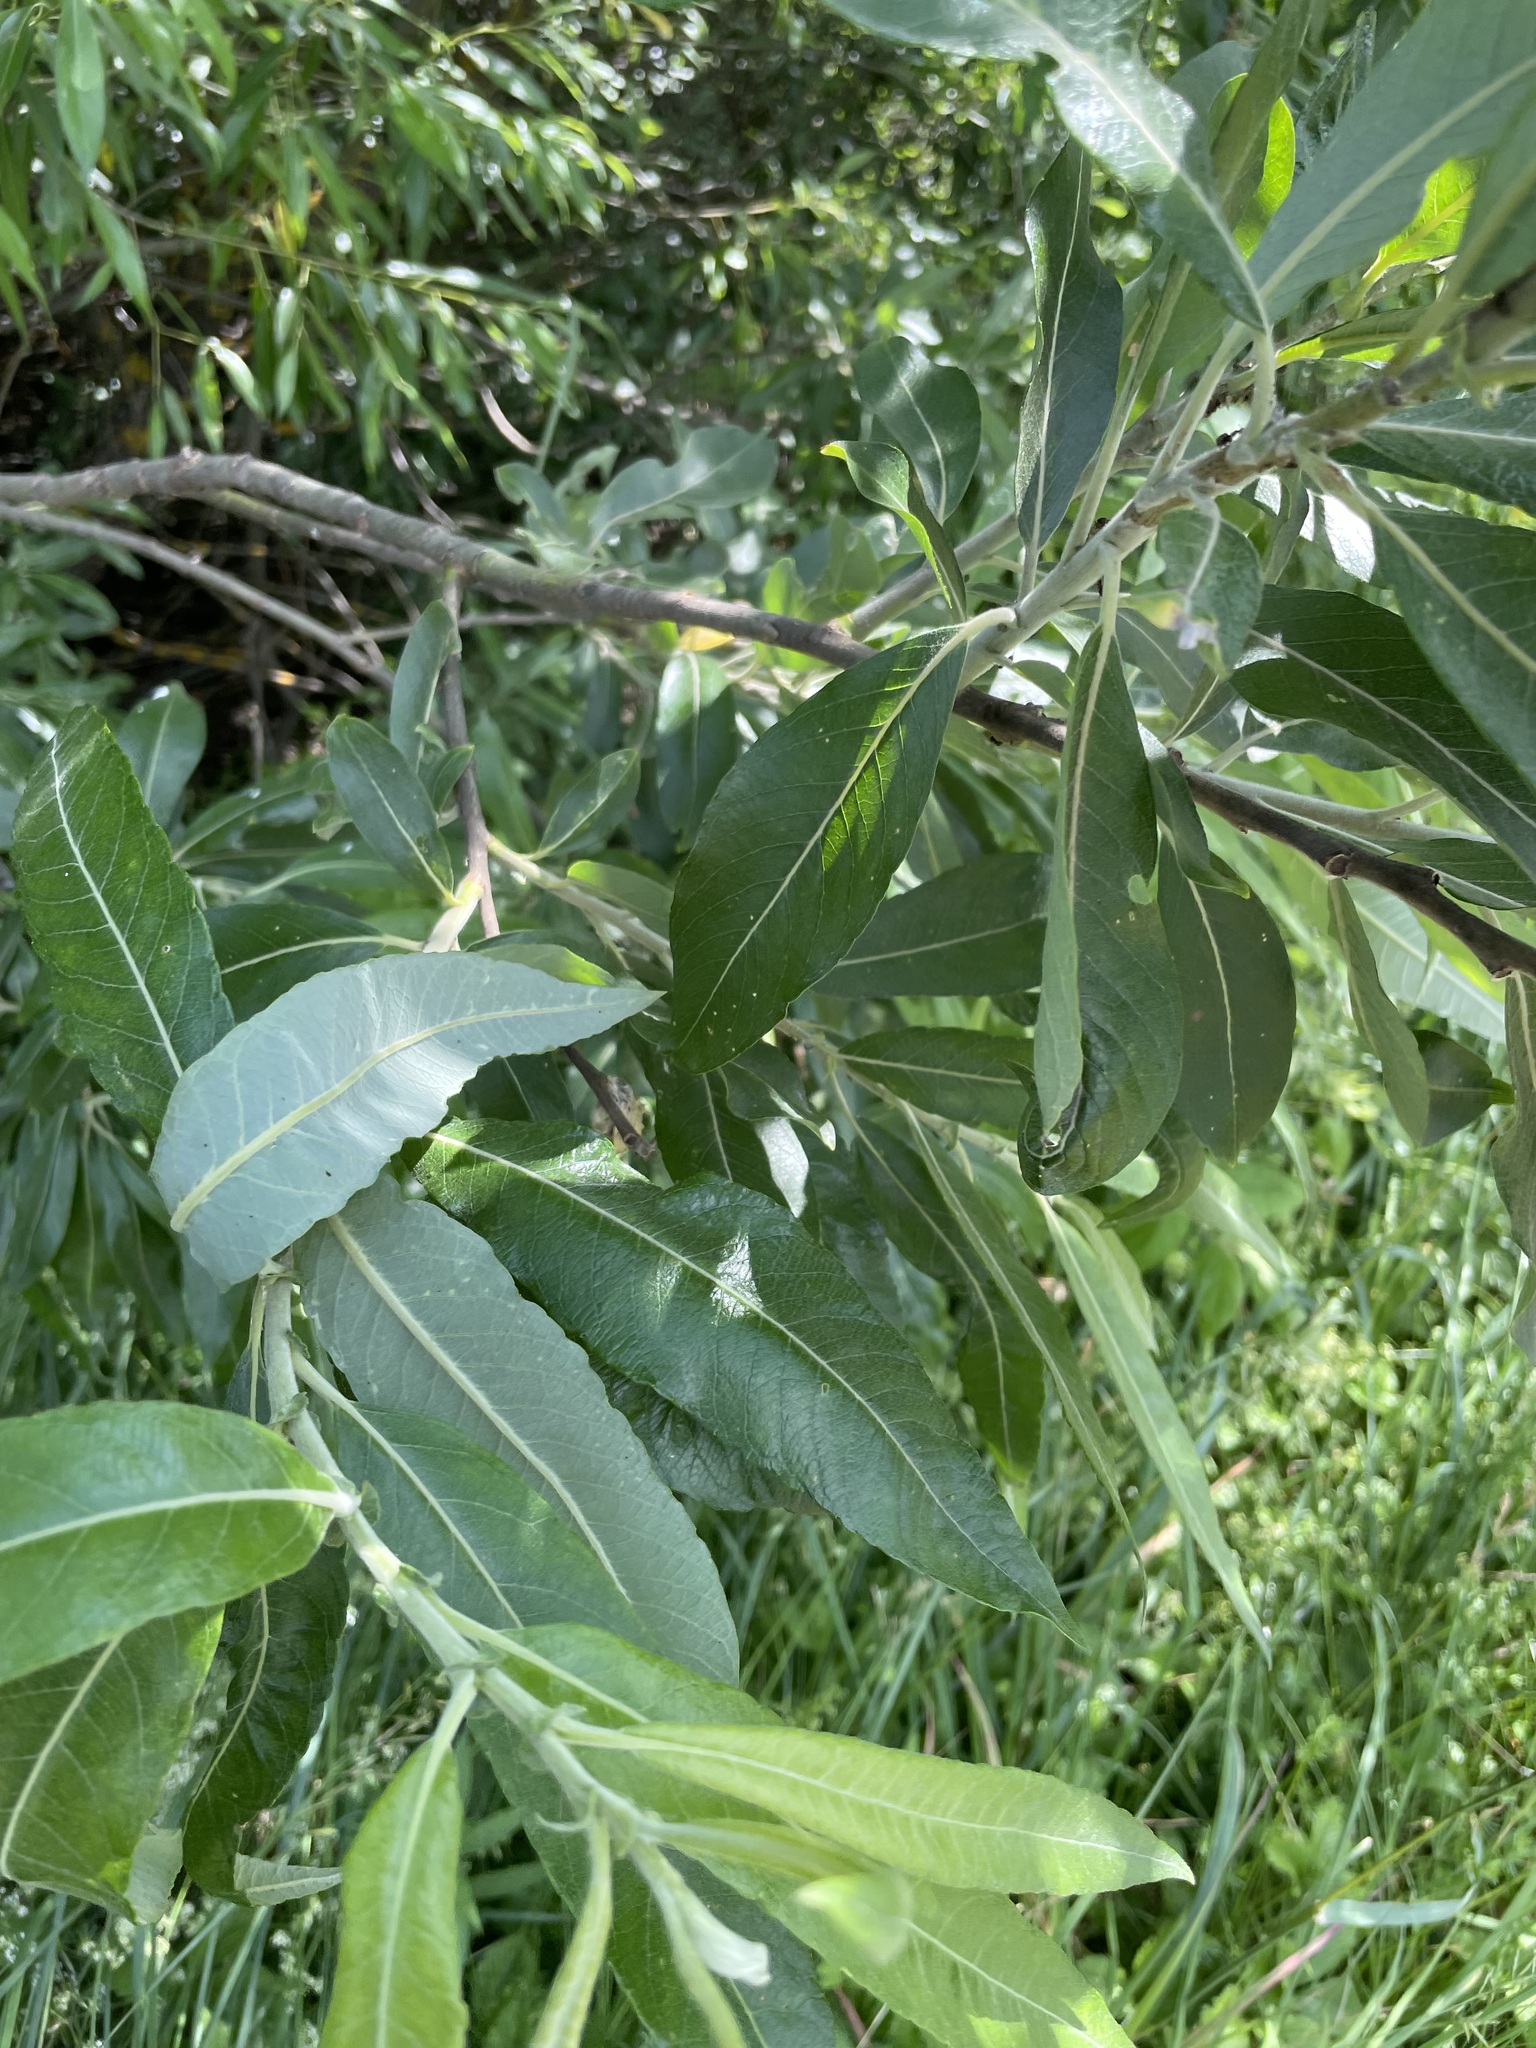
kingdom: Plantae
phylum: Tracheophyta
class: Magnoliopsida
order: Malpighiales
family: Salicaceae
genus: Salix
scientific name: Salix gmelinii
